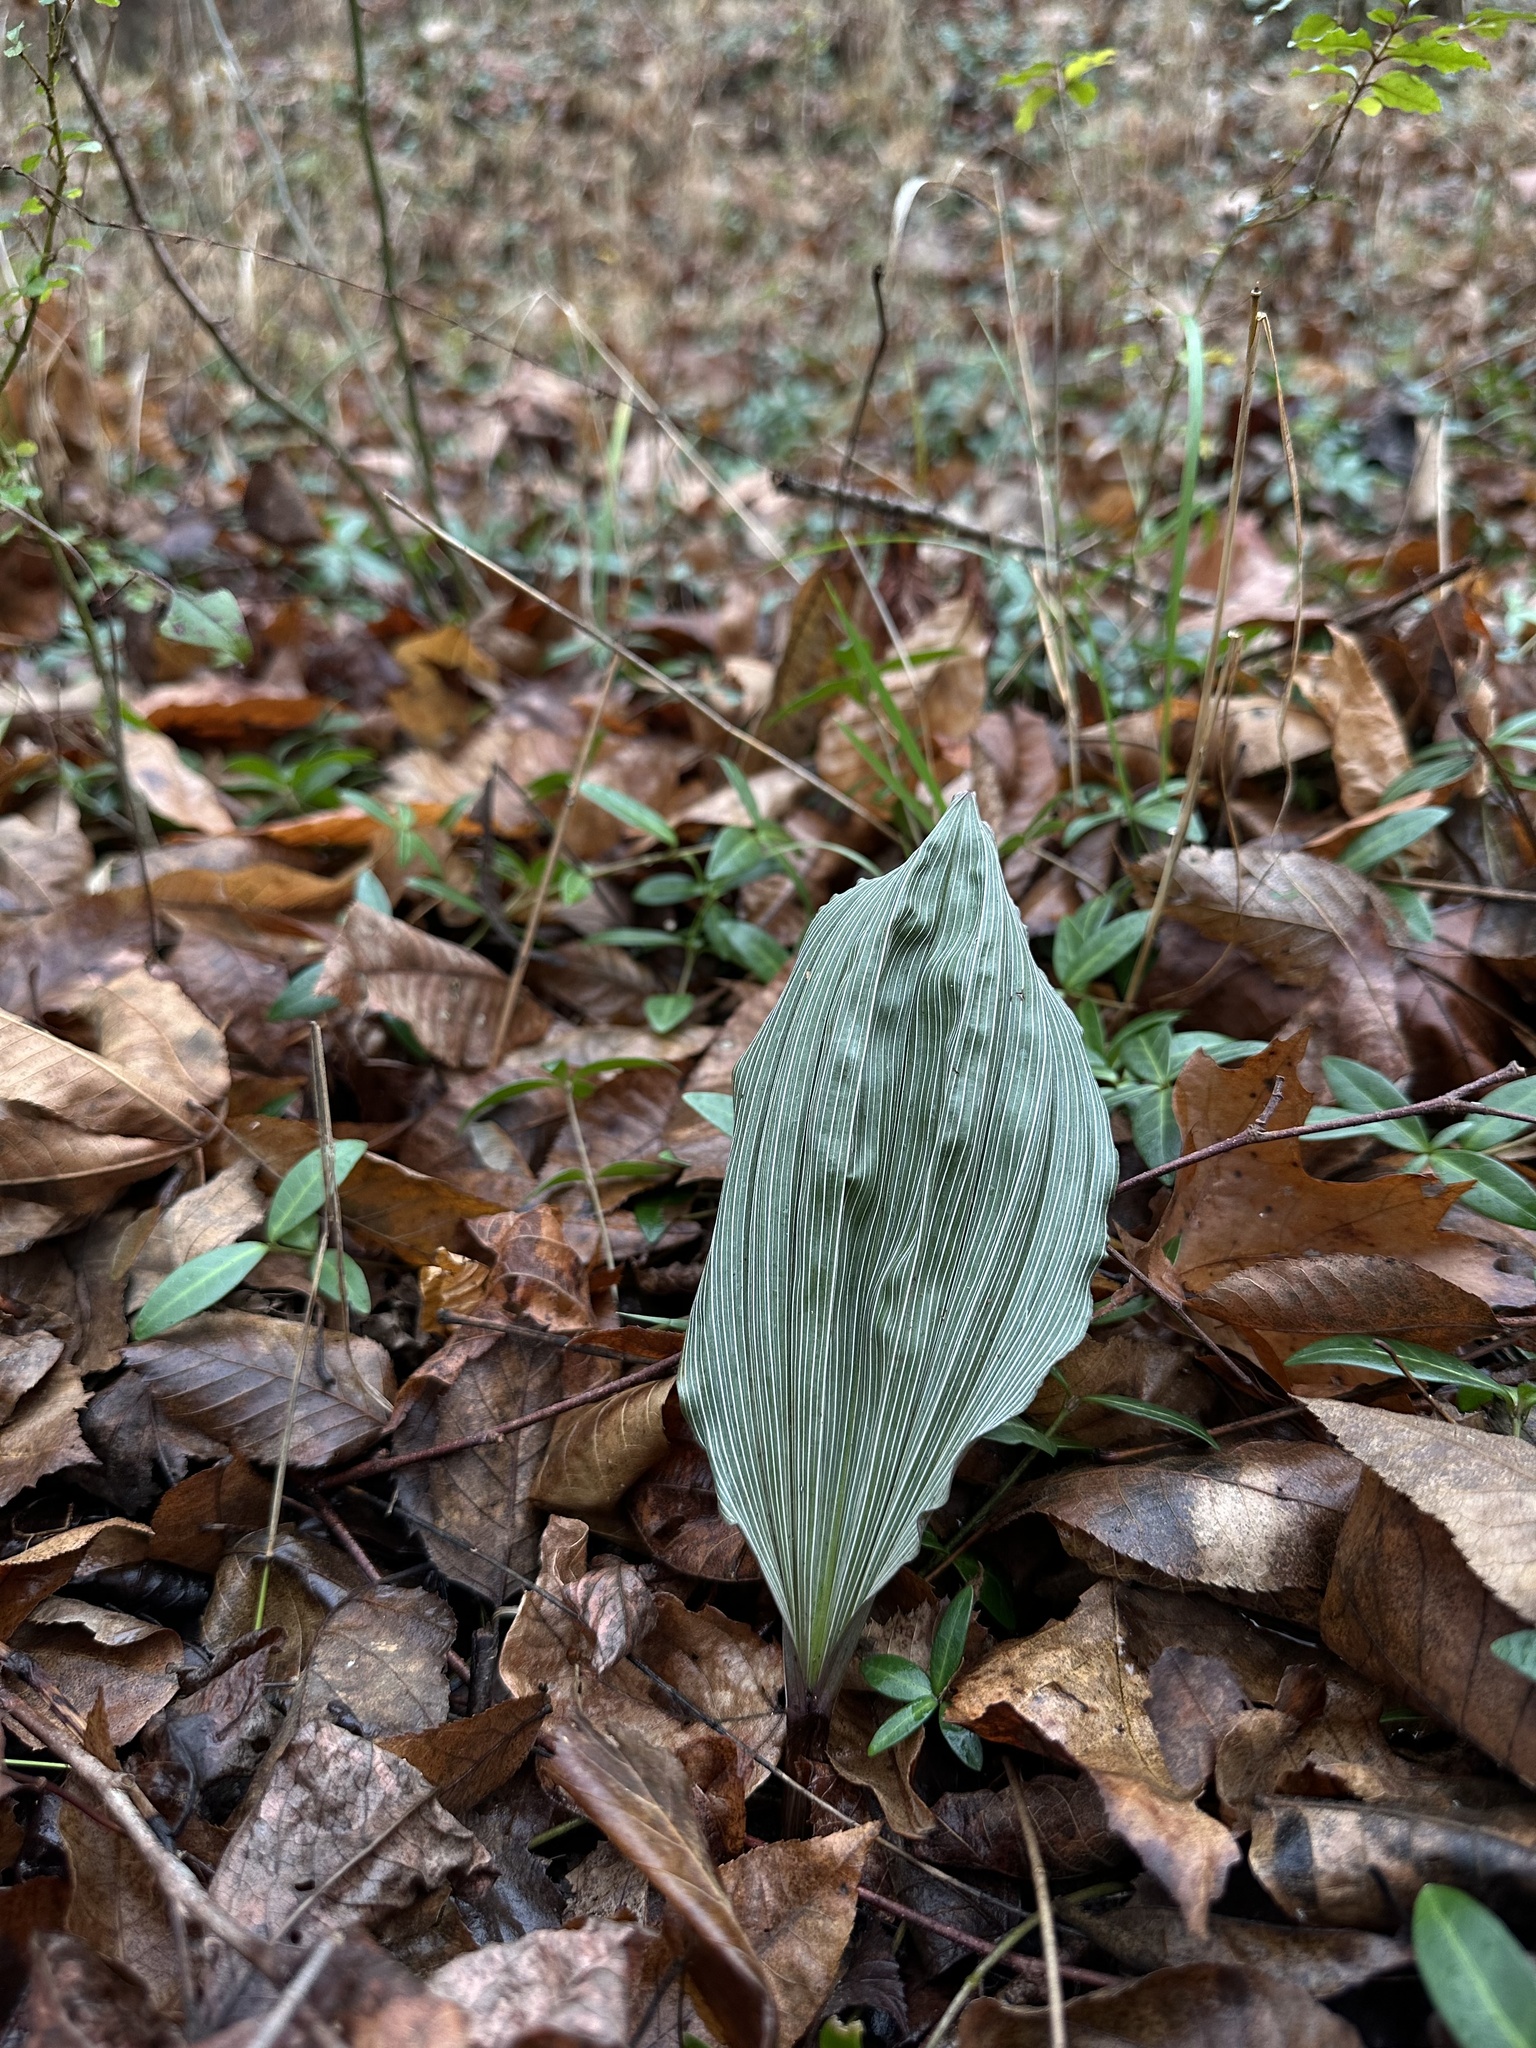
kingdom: Plantae
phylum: Tracheophyta
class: Liliopsida
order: Asparagales
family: Orchidaceae
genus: Aplectrum
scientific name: Aplectrum hyemale
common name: Adam-and-eve
